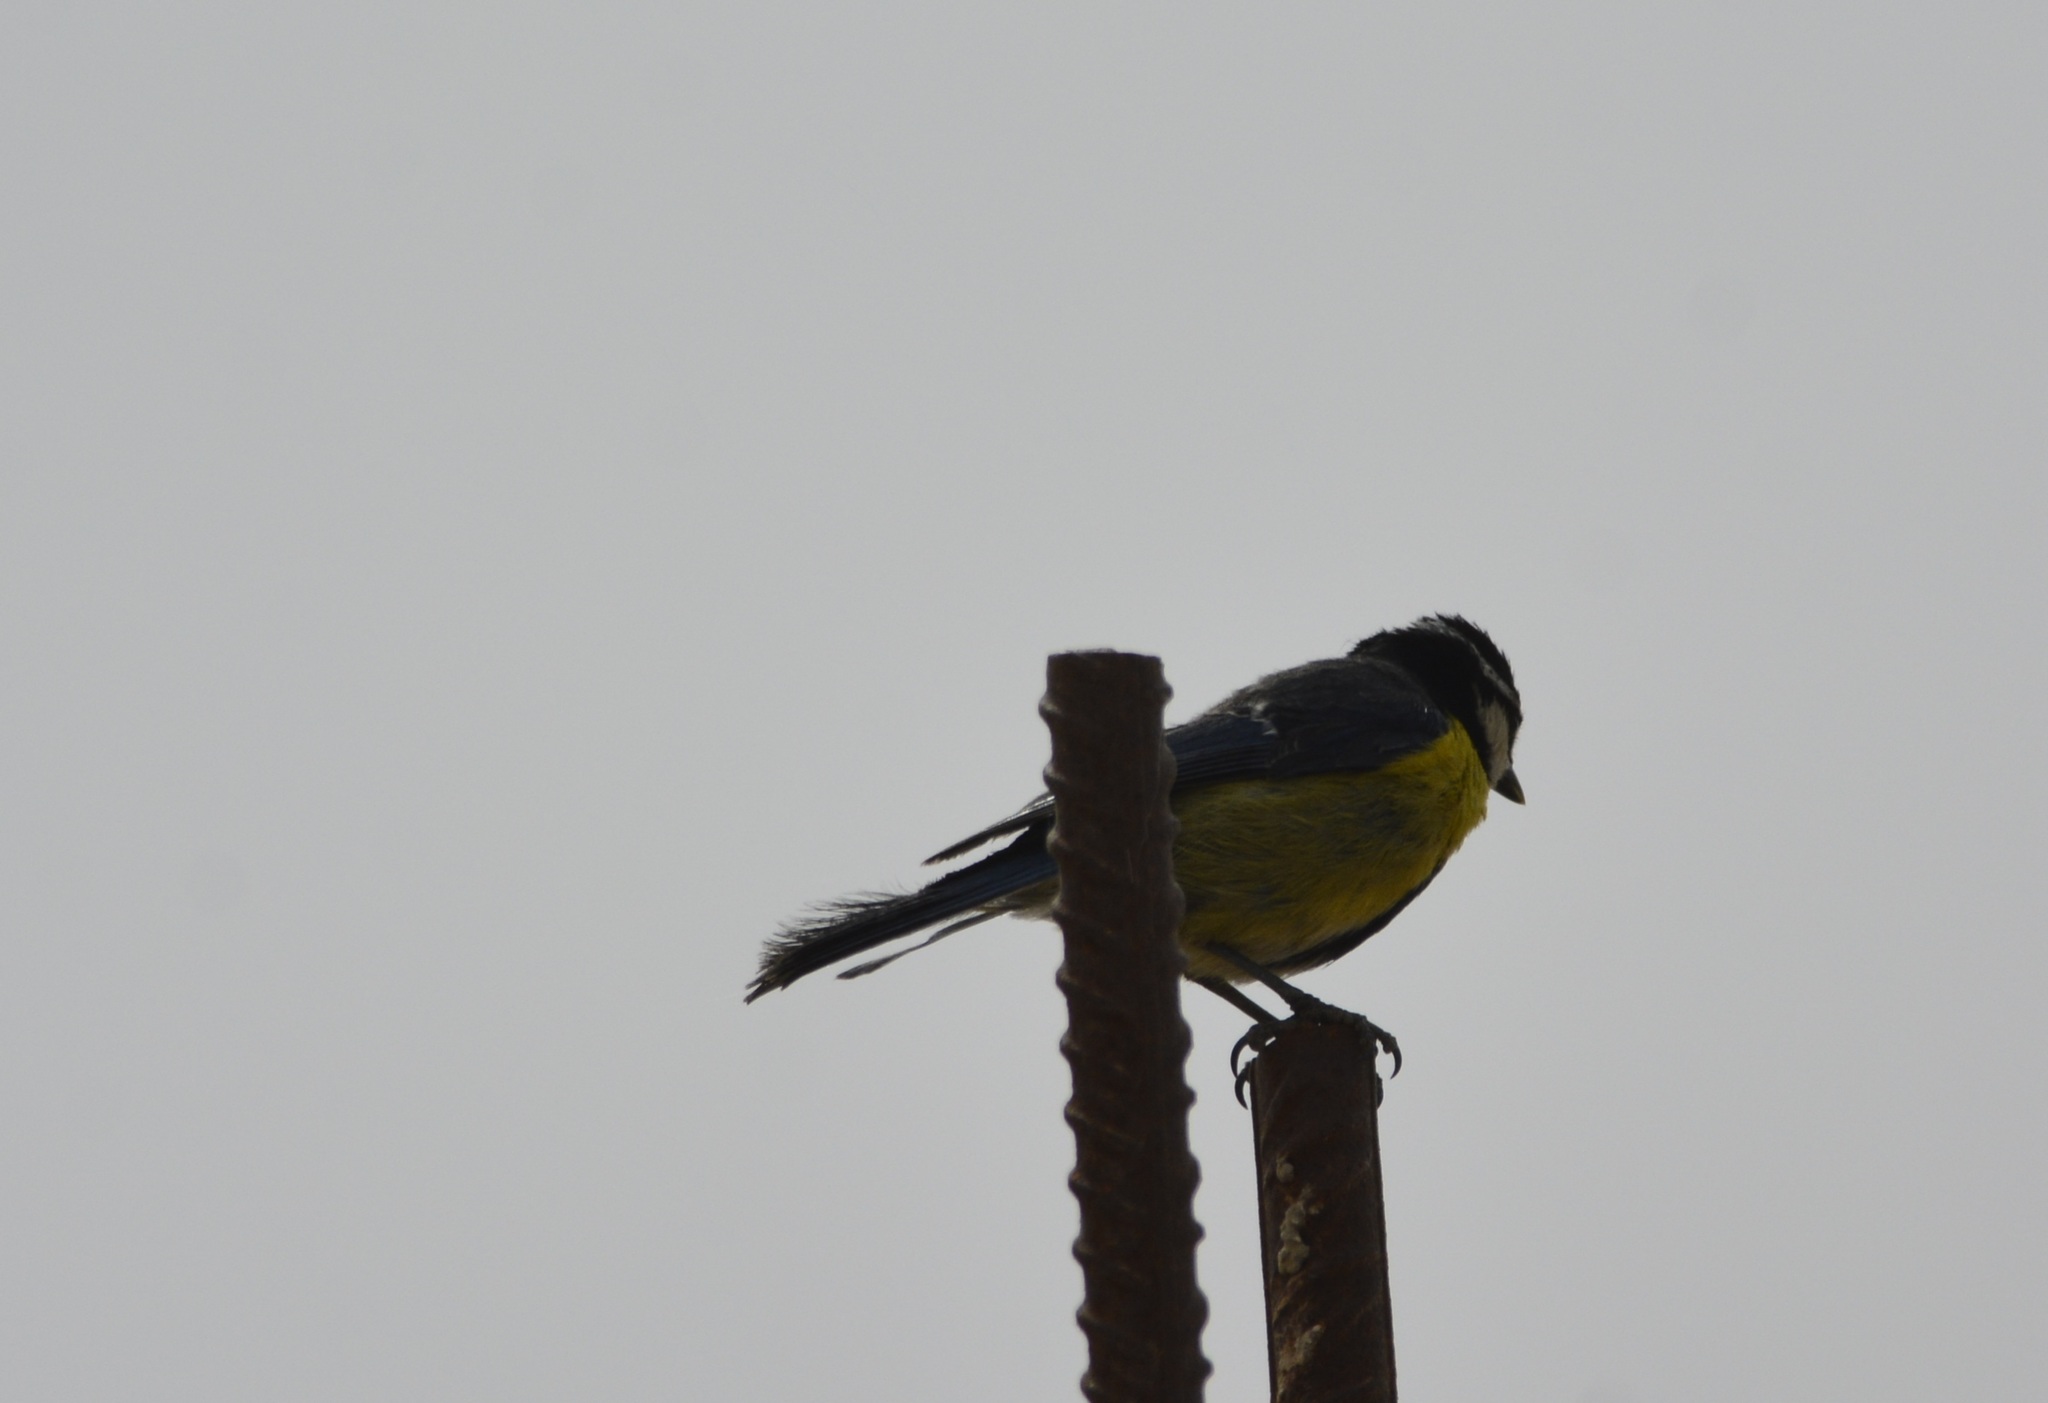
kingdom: Animalia
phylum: Chordata
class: Aves
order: Passeriformes
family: Paridae
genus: Cyanistes
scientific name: Cyanistes teneriffae
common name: African blue tit
